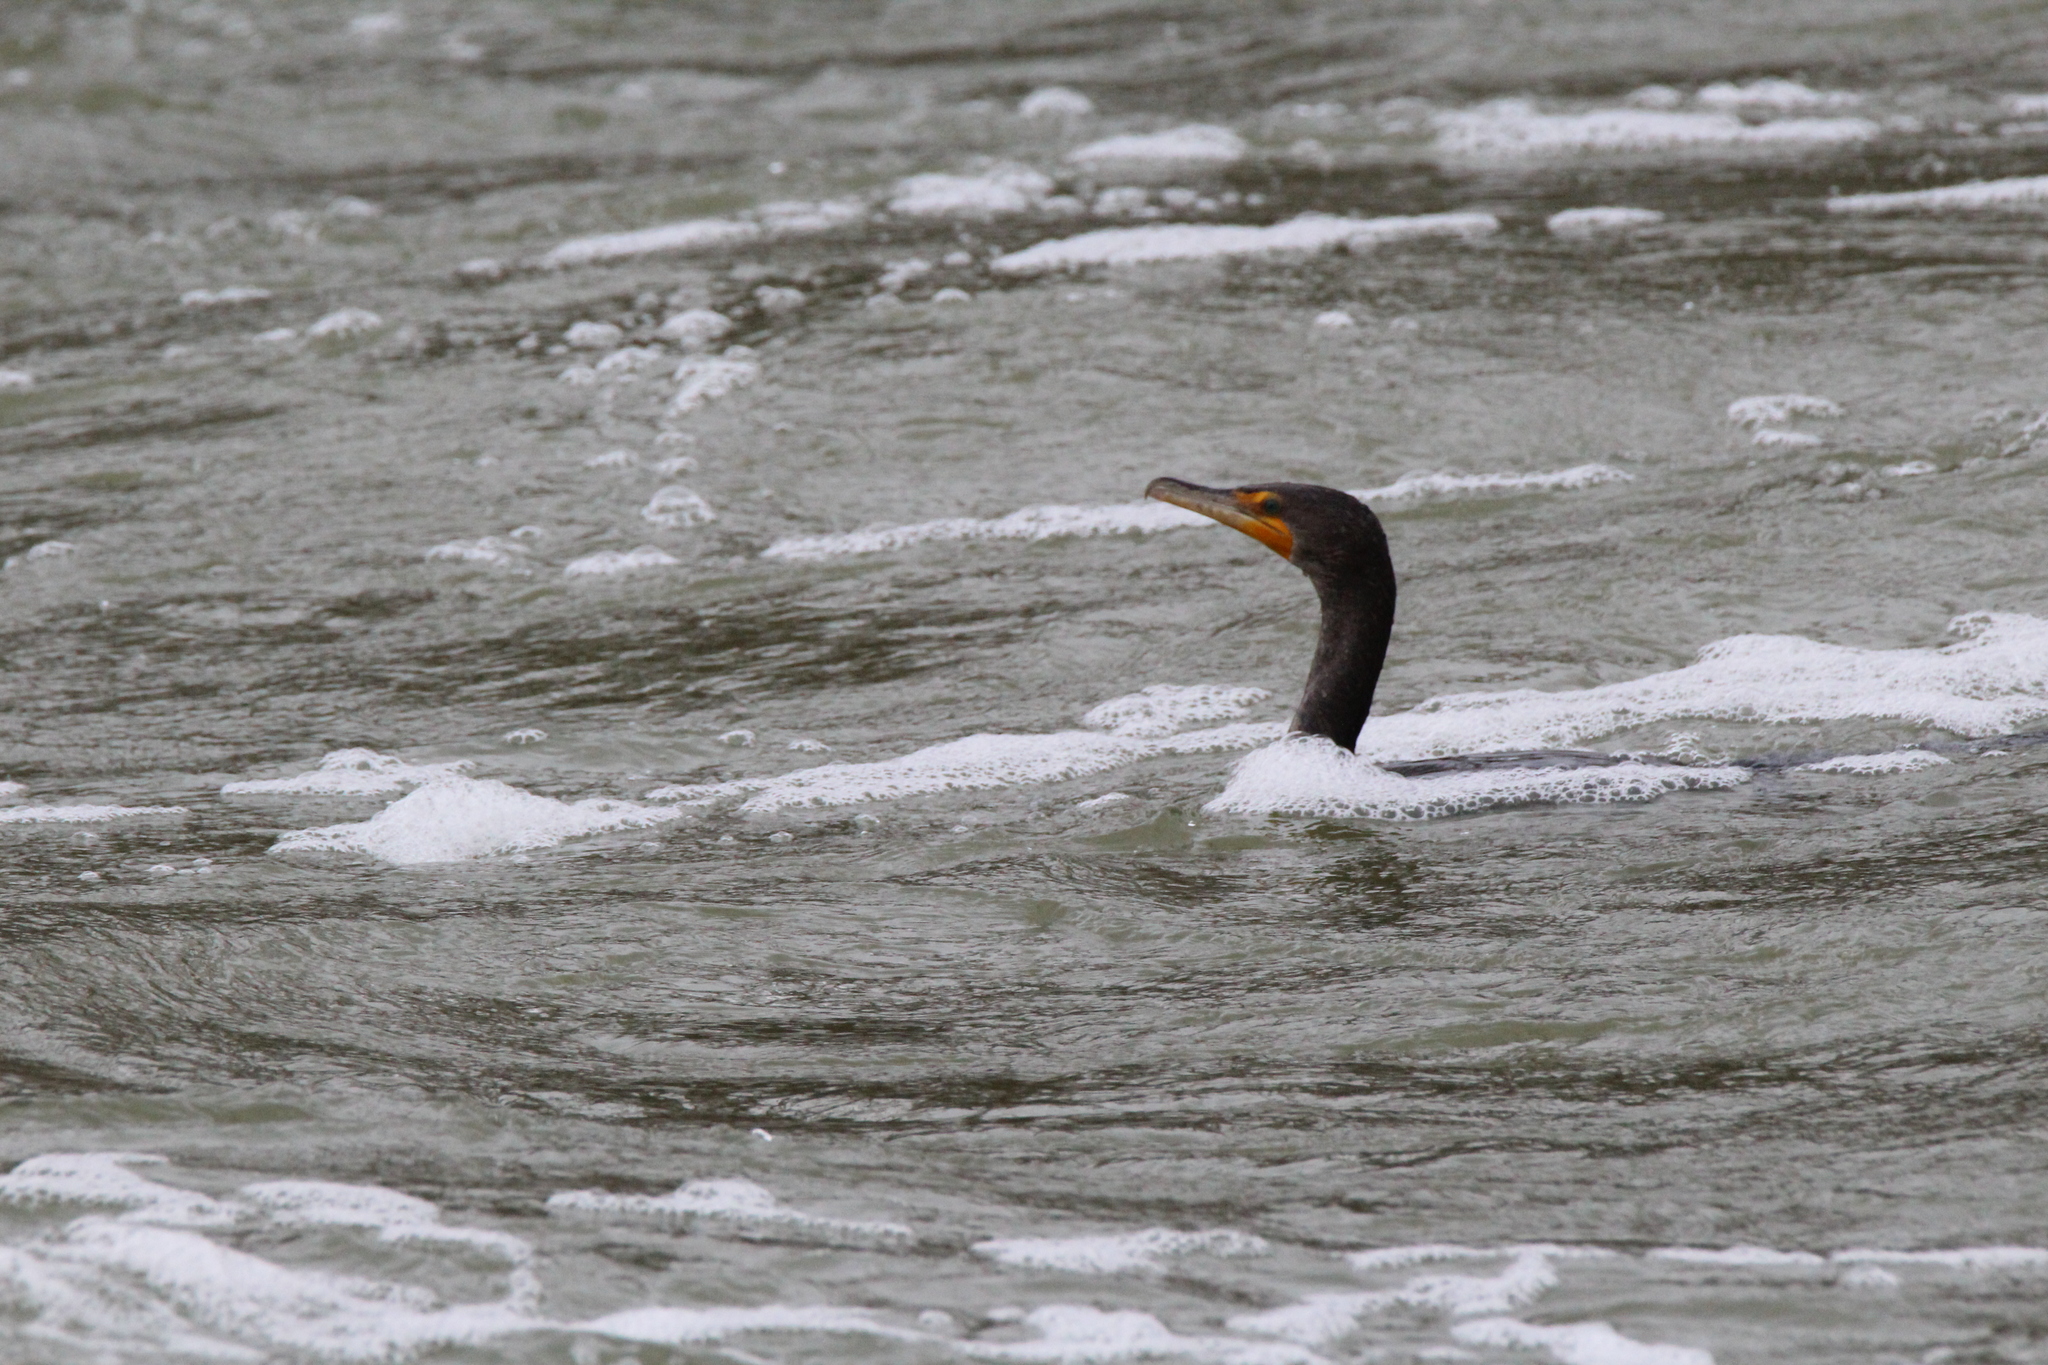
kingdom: Animalia
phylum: Chordata
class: Aves
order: Suliformes
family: Phalacrocoracidae
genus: Phalacrocorax
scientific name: Phalacrocorax auritus
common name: Double-crested cormorant
